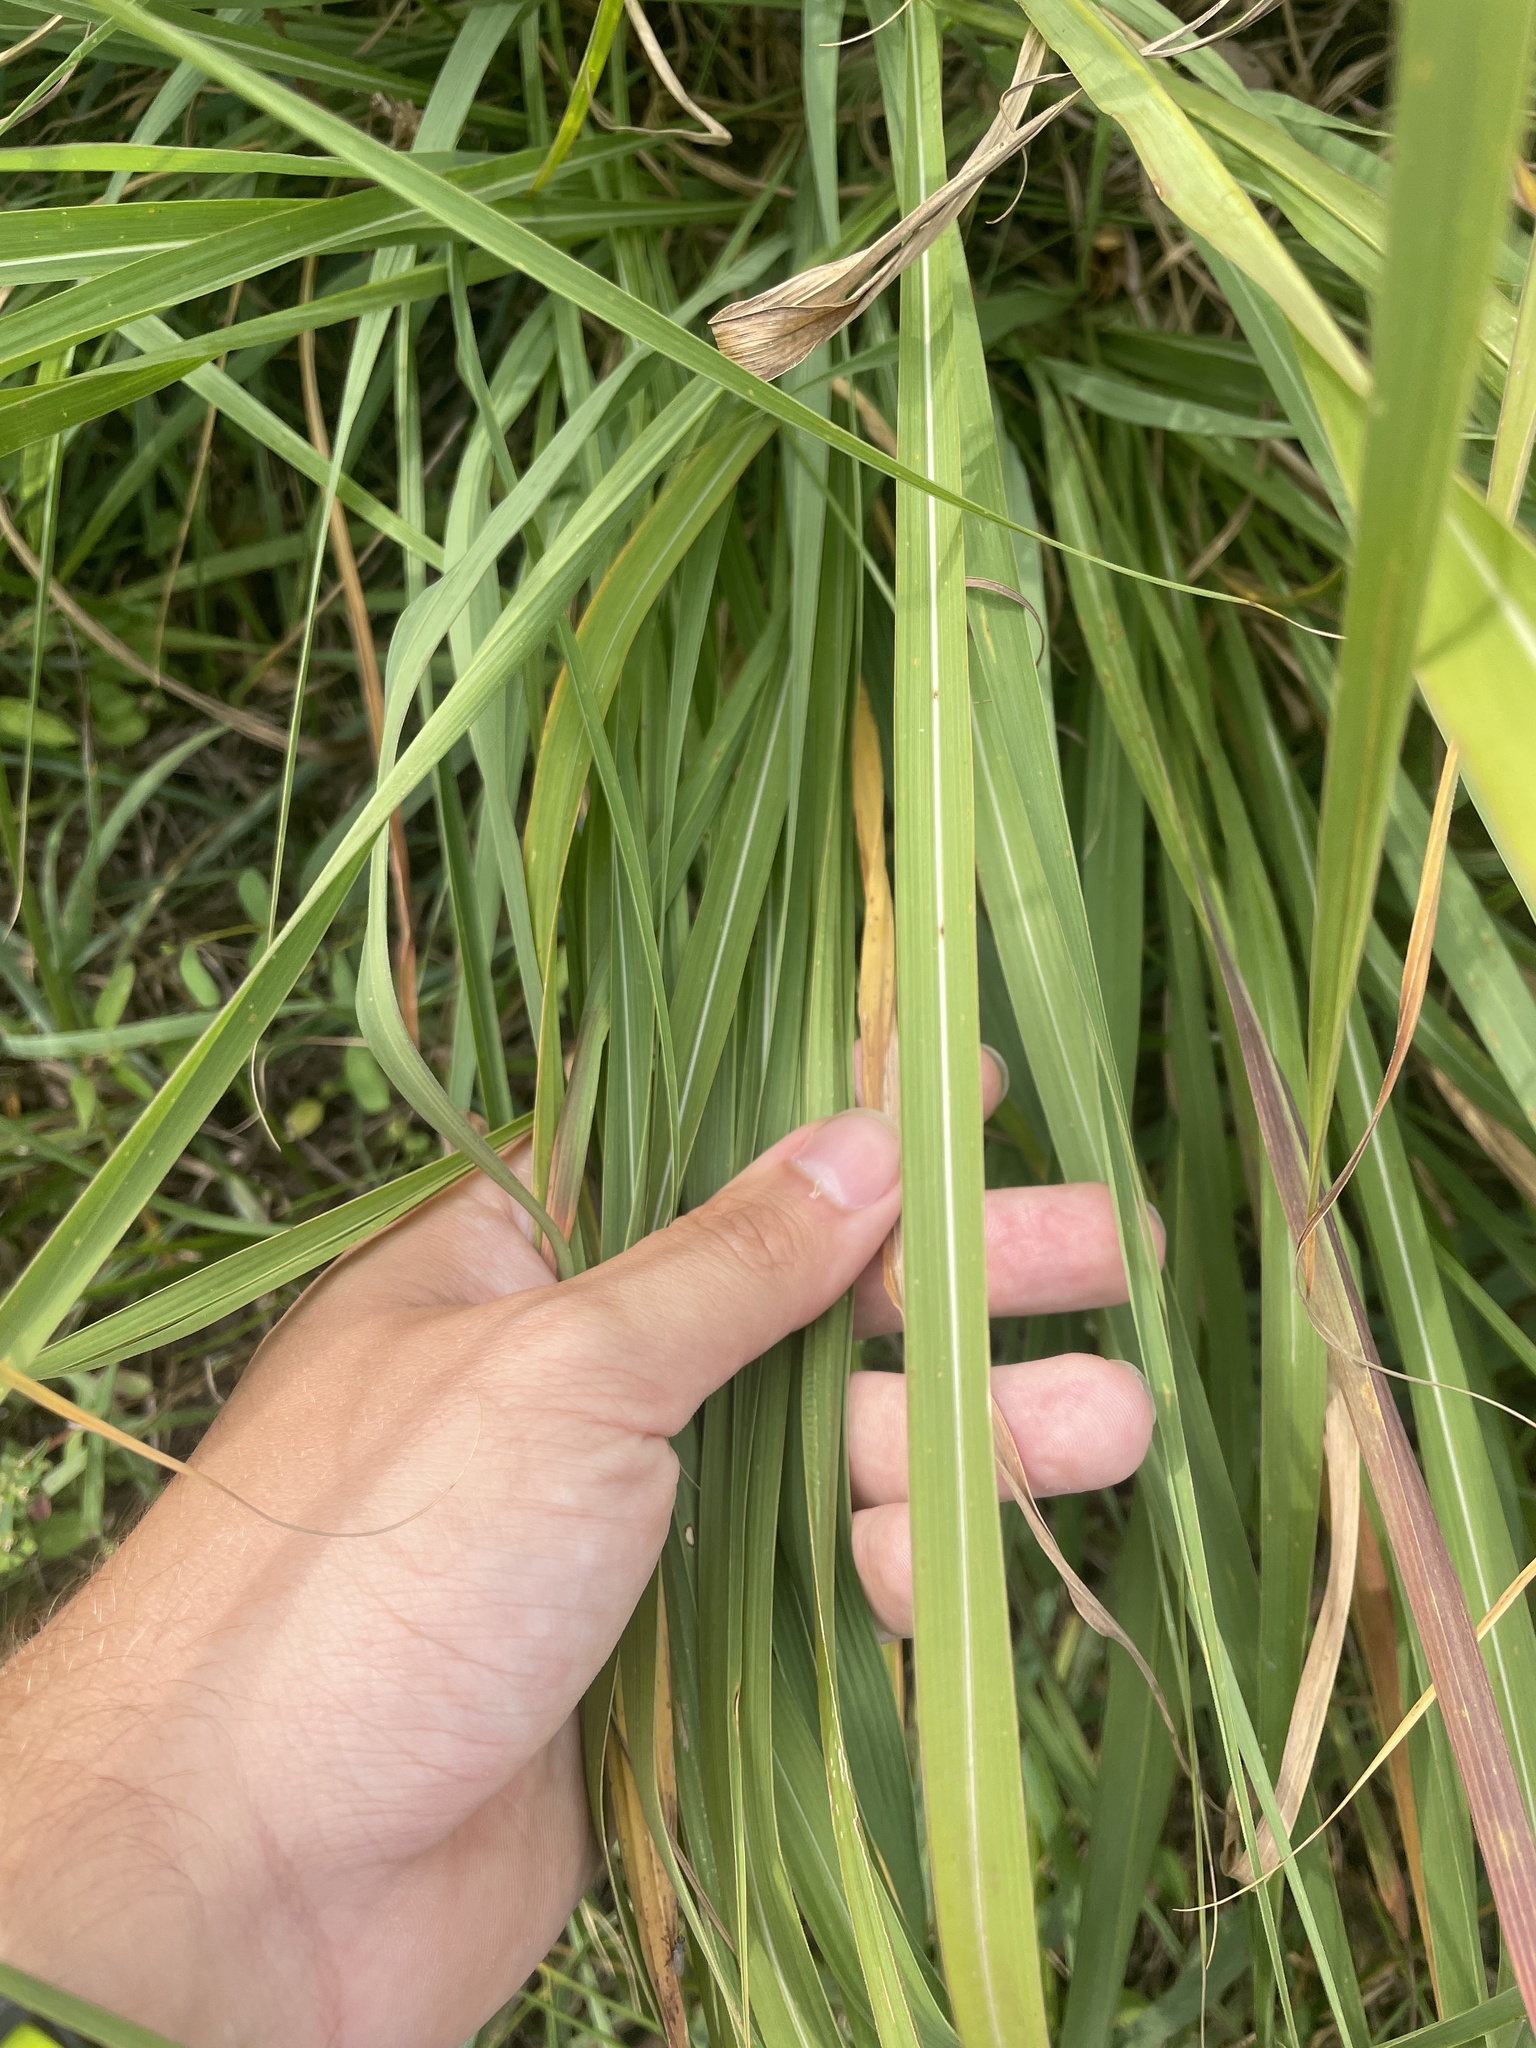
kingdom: Plantae
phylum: Tracheophyta
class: Liliopsida
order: Poales
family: Poaceae
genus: Tripsacum
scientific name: Tripsacum dactyloides
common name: Buffalo-grass
